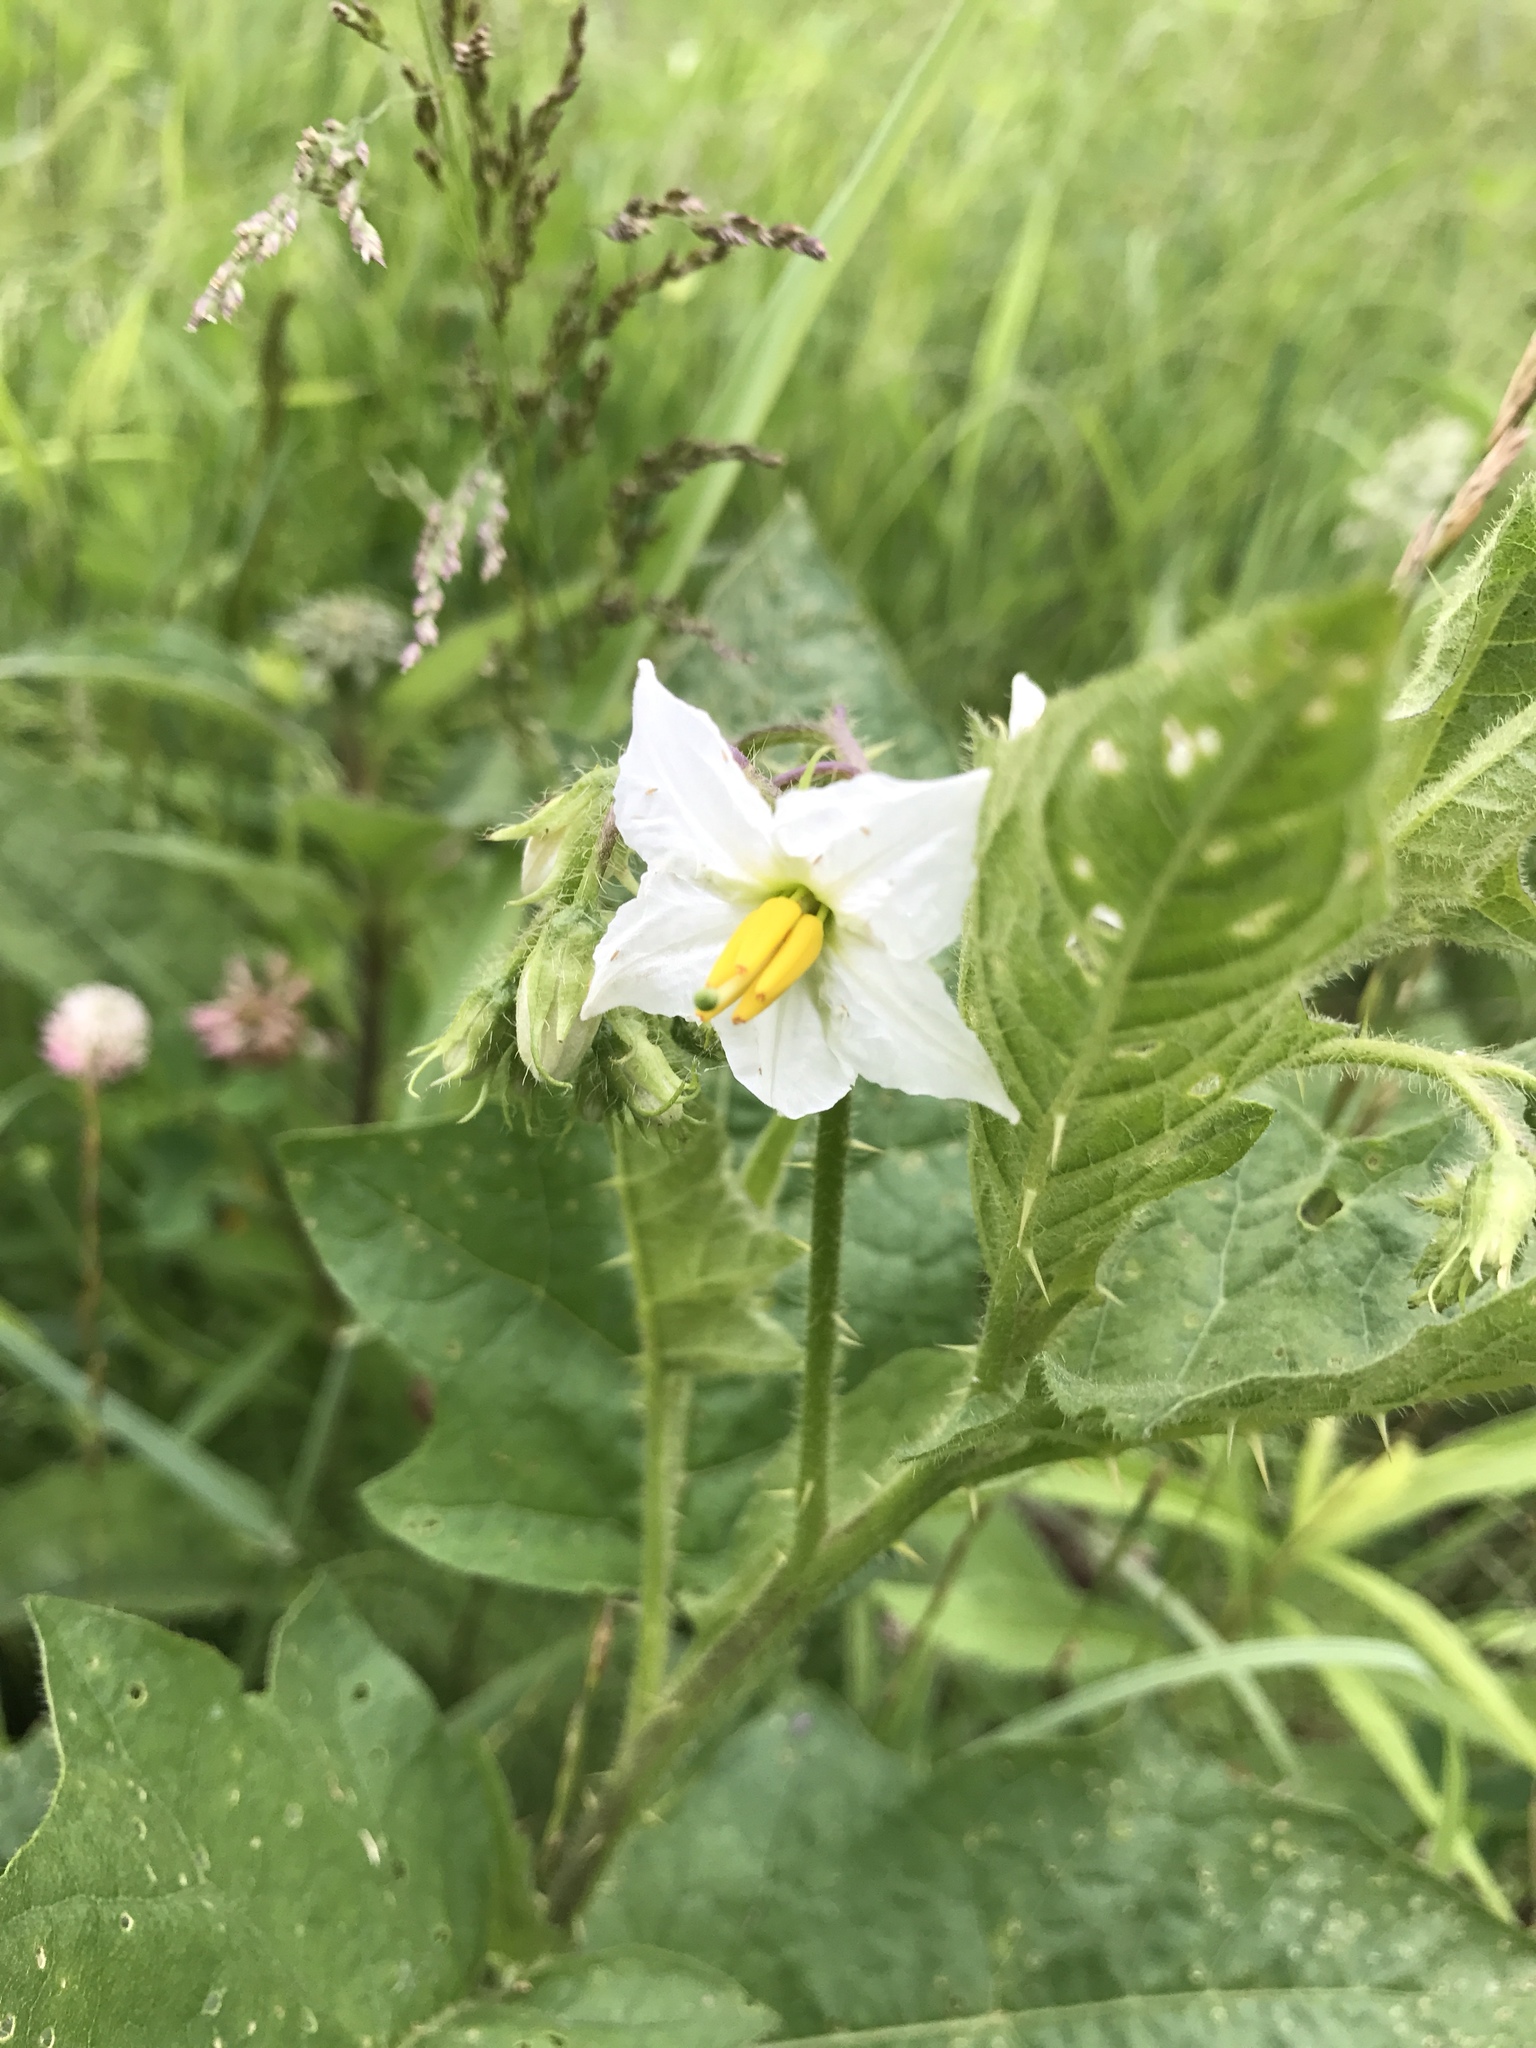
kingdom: Plantae
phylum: Tracheophyta
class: Magnoliopsida
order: Solanales
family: Solanaceae
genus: Solanum
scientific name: Solanum carolinense
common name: Horse-nettle
